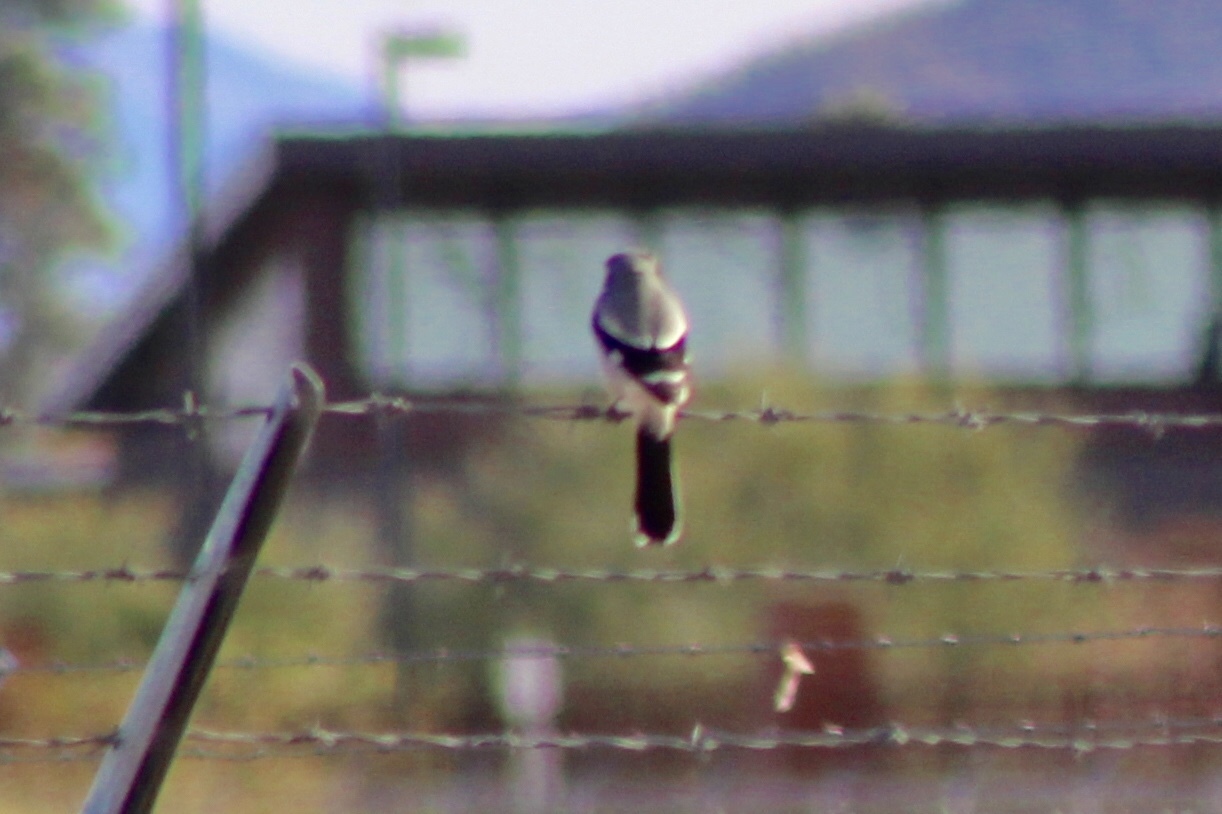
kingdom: Animalia
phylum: Chordata
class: Aves
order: Passeriformes
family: Laniidae
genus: Lanius
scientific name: Lanius ludovicianus
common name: Loggerhead shrike
